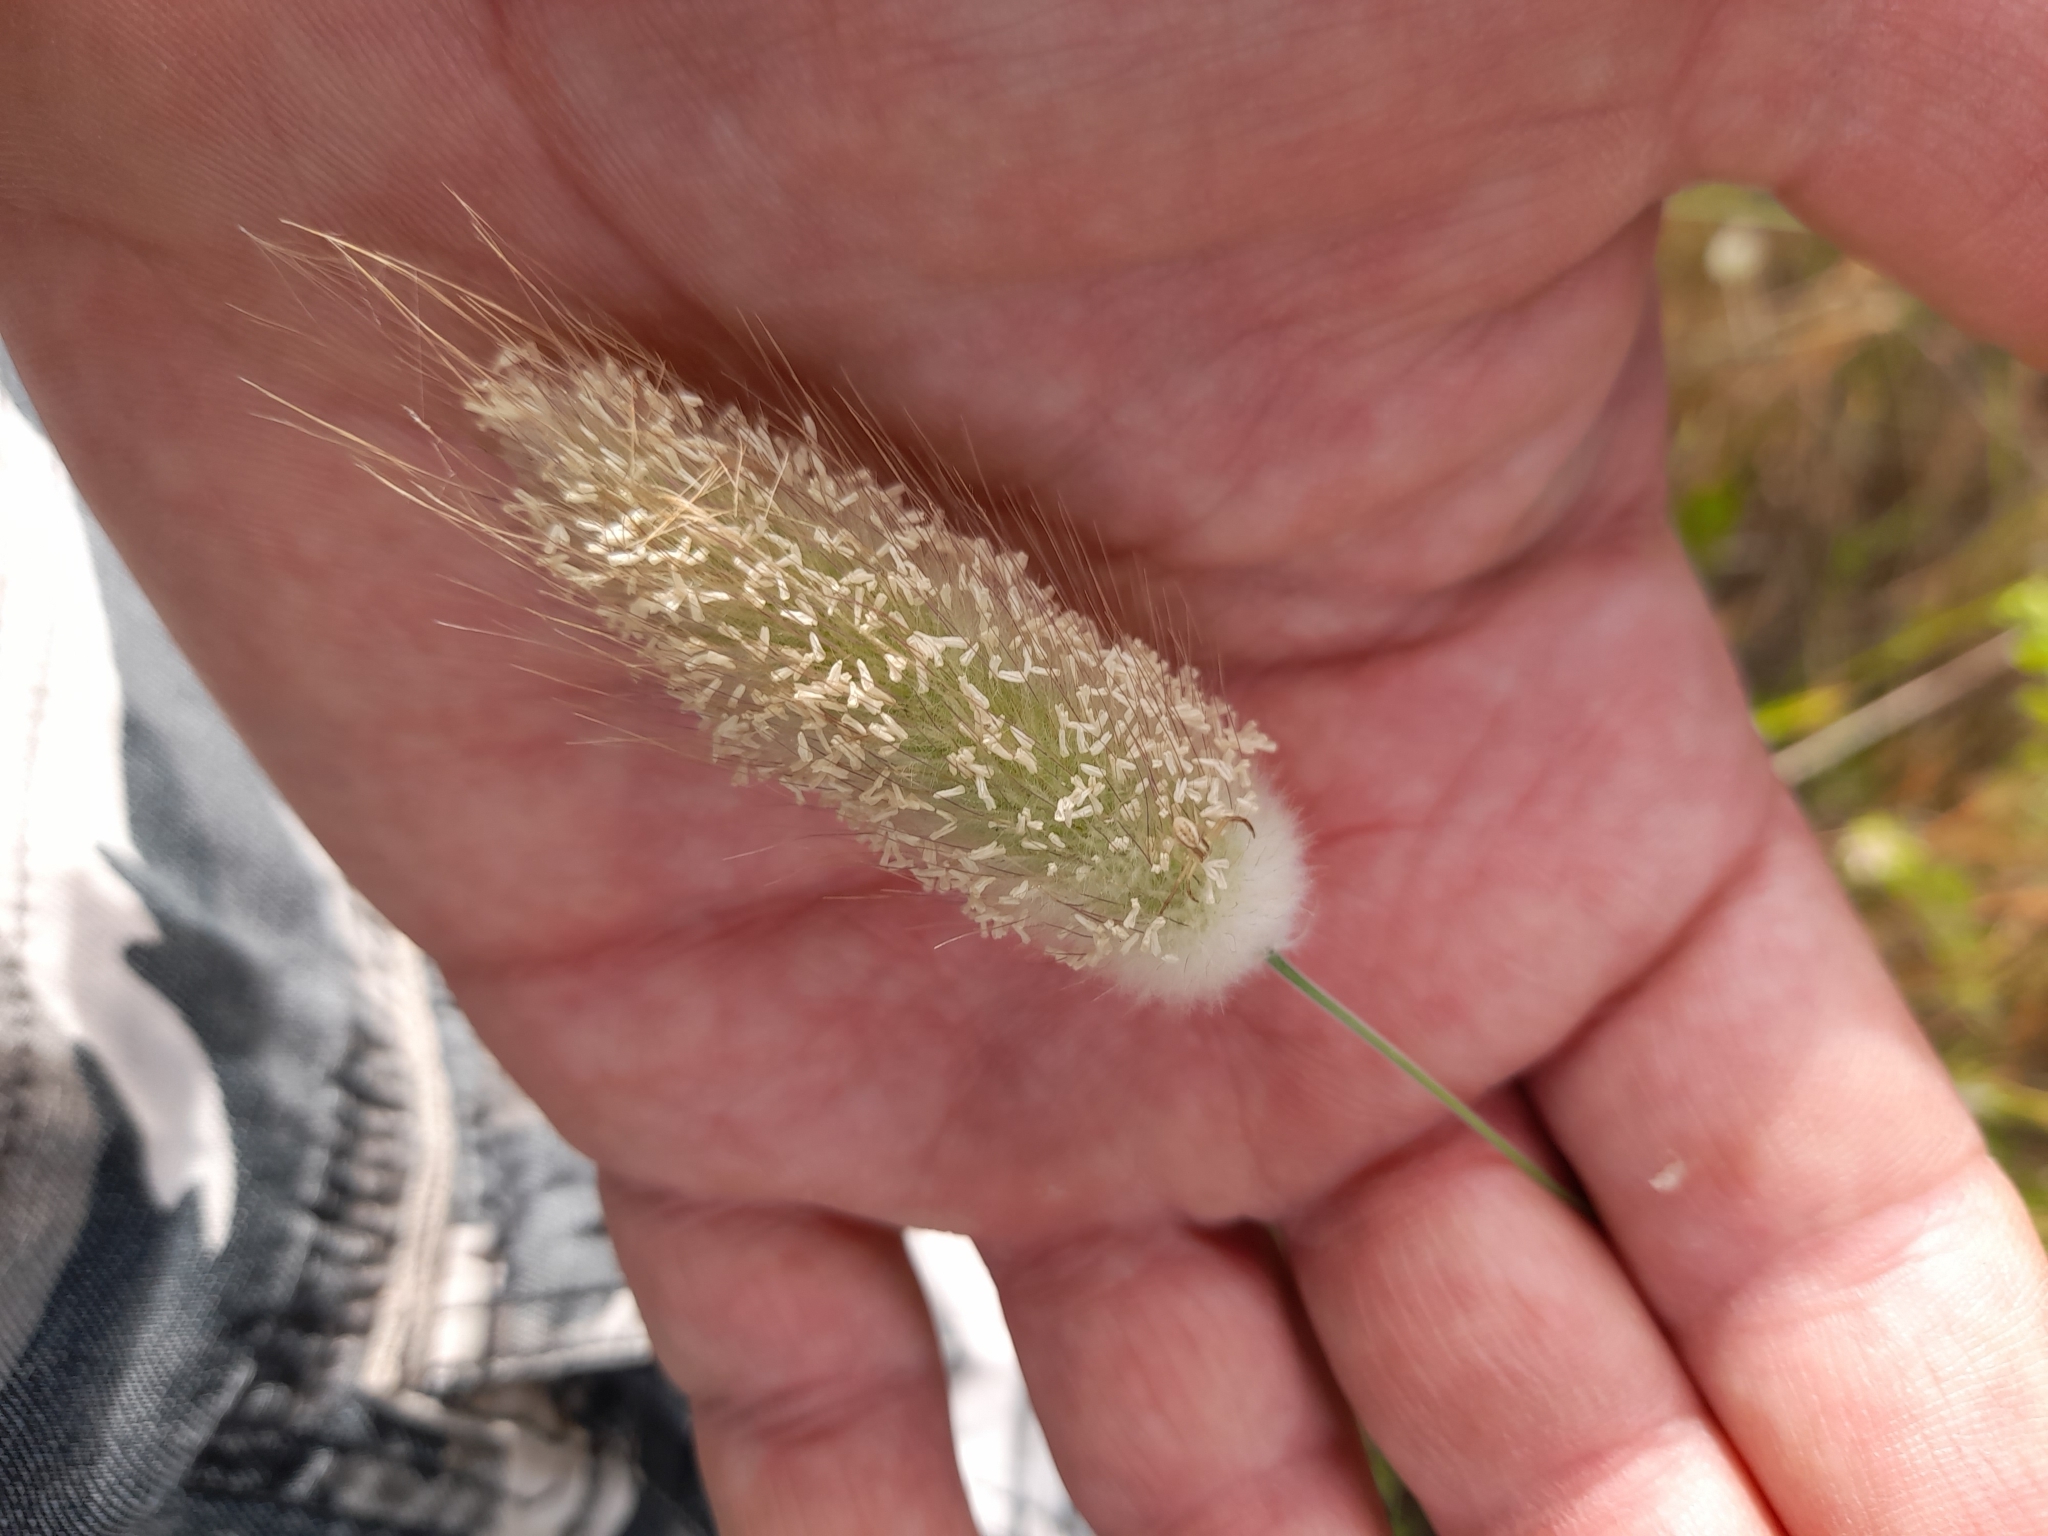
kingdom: Plantae
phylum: Tracheophyta
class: Liliopsida
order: Poales
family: Poaceae
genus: Lagurus
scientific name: Lagurus ovatus
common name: Hare's-tail
